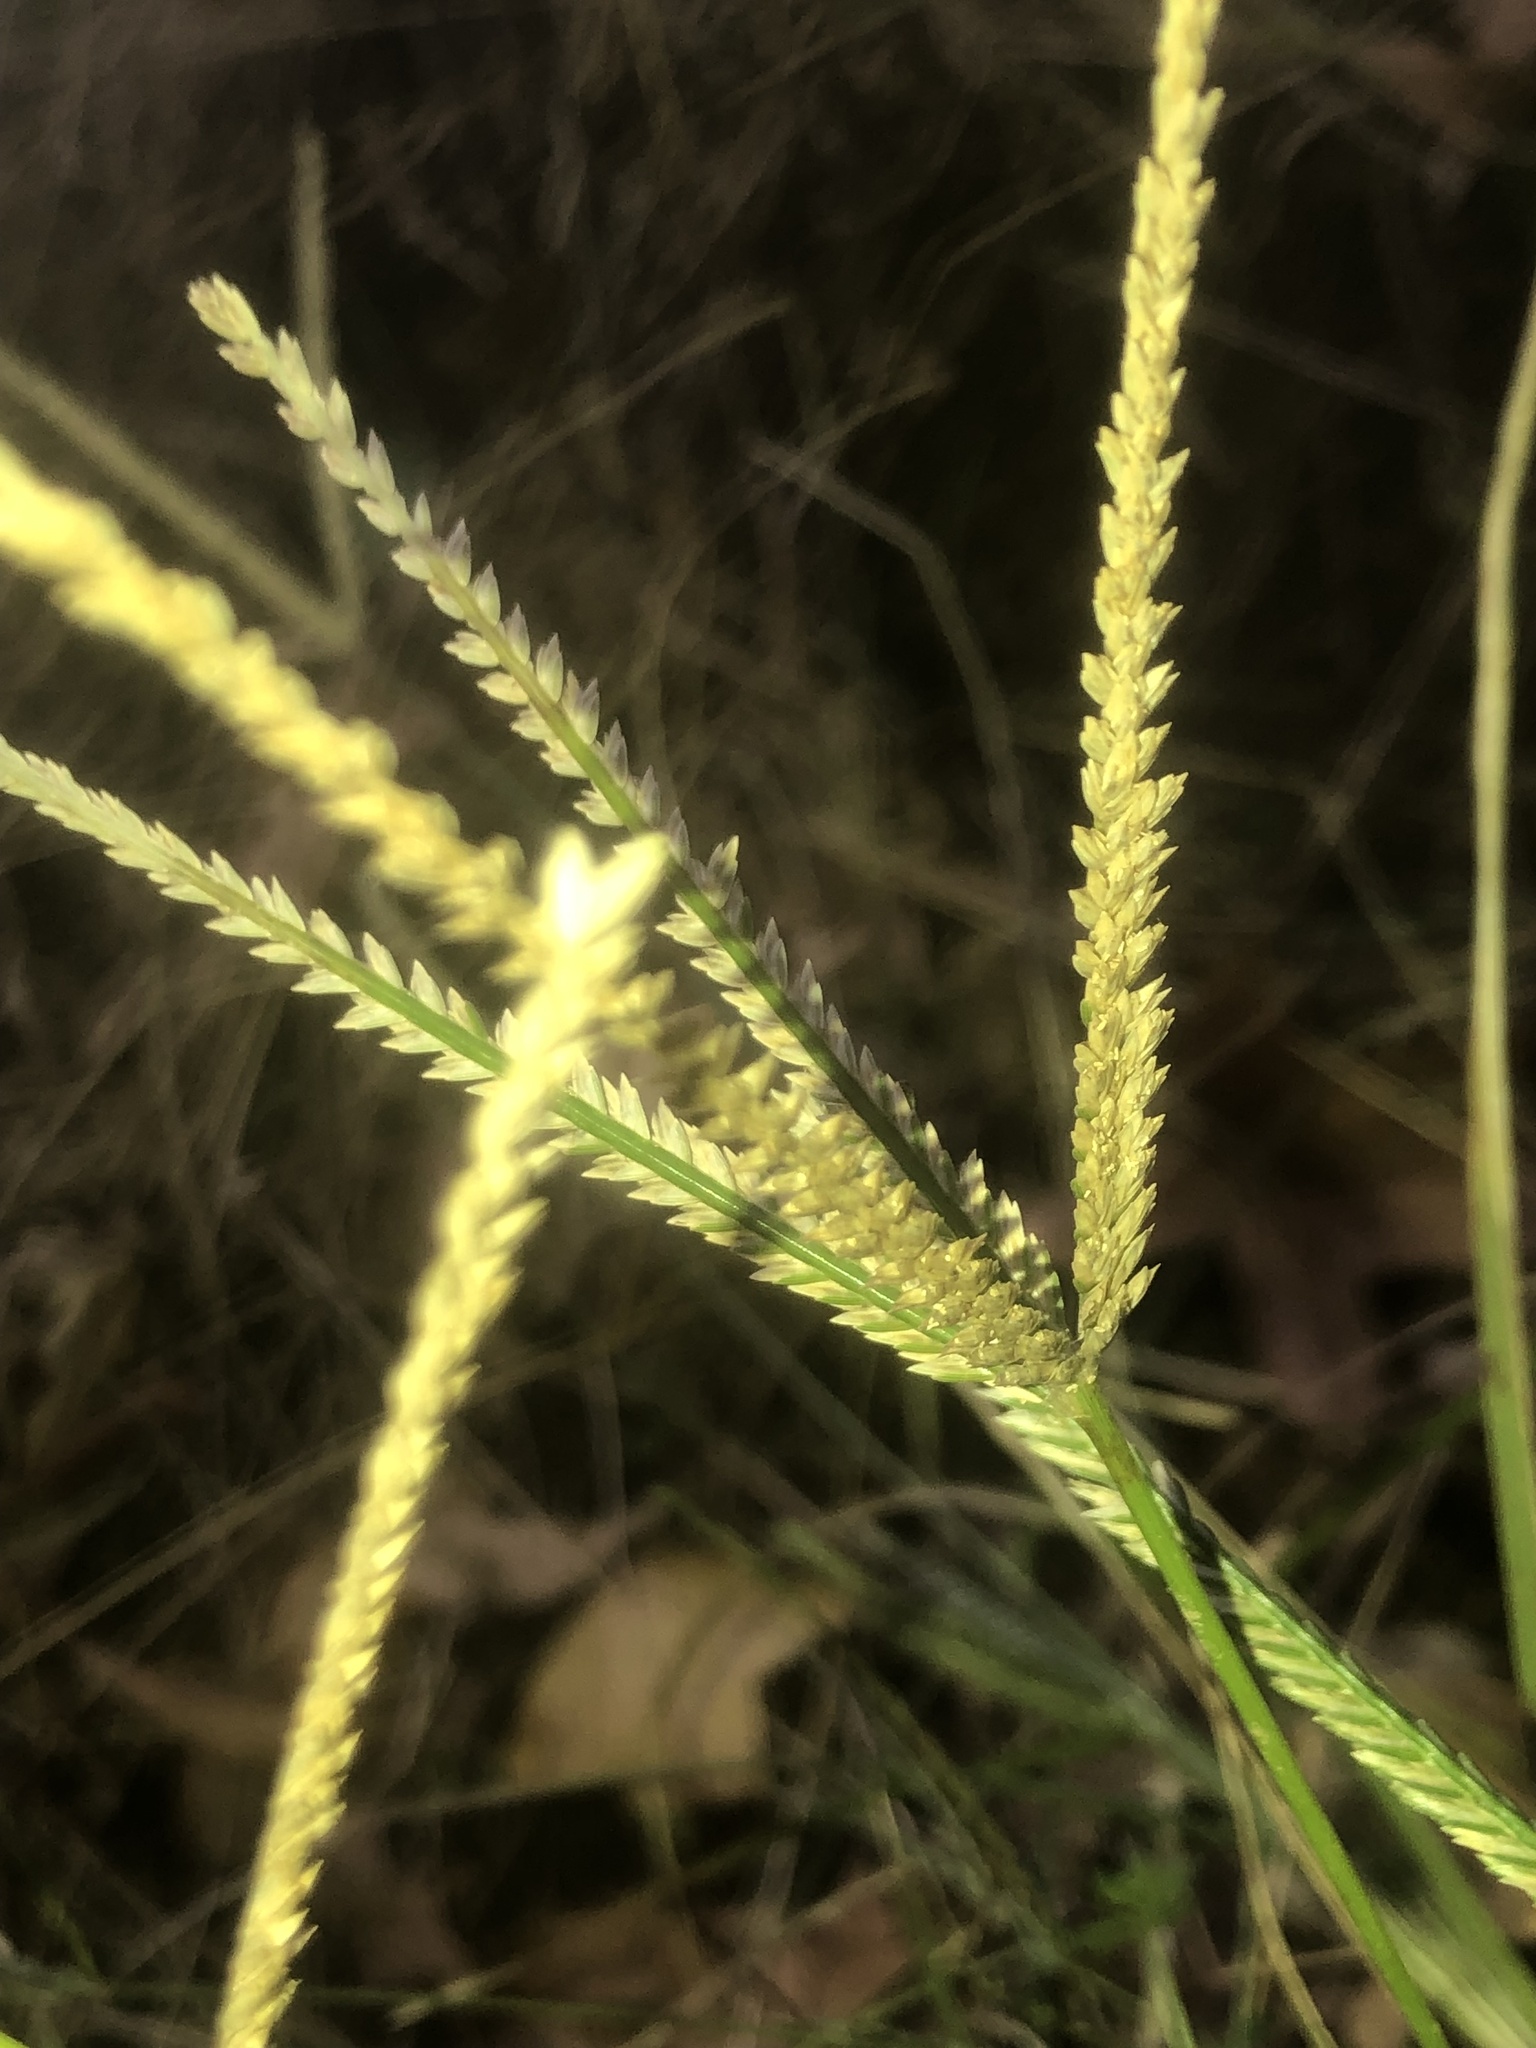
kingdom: Plantae
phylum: Tracheophyta
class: Liliopsida
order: Poales
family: Poaceae
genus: Eleusine
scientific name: Eleusine indica
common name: Yard-grass
